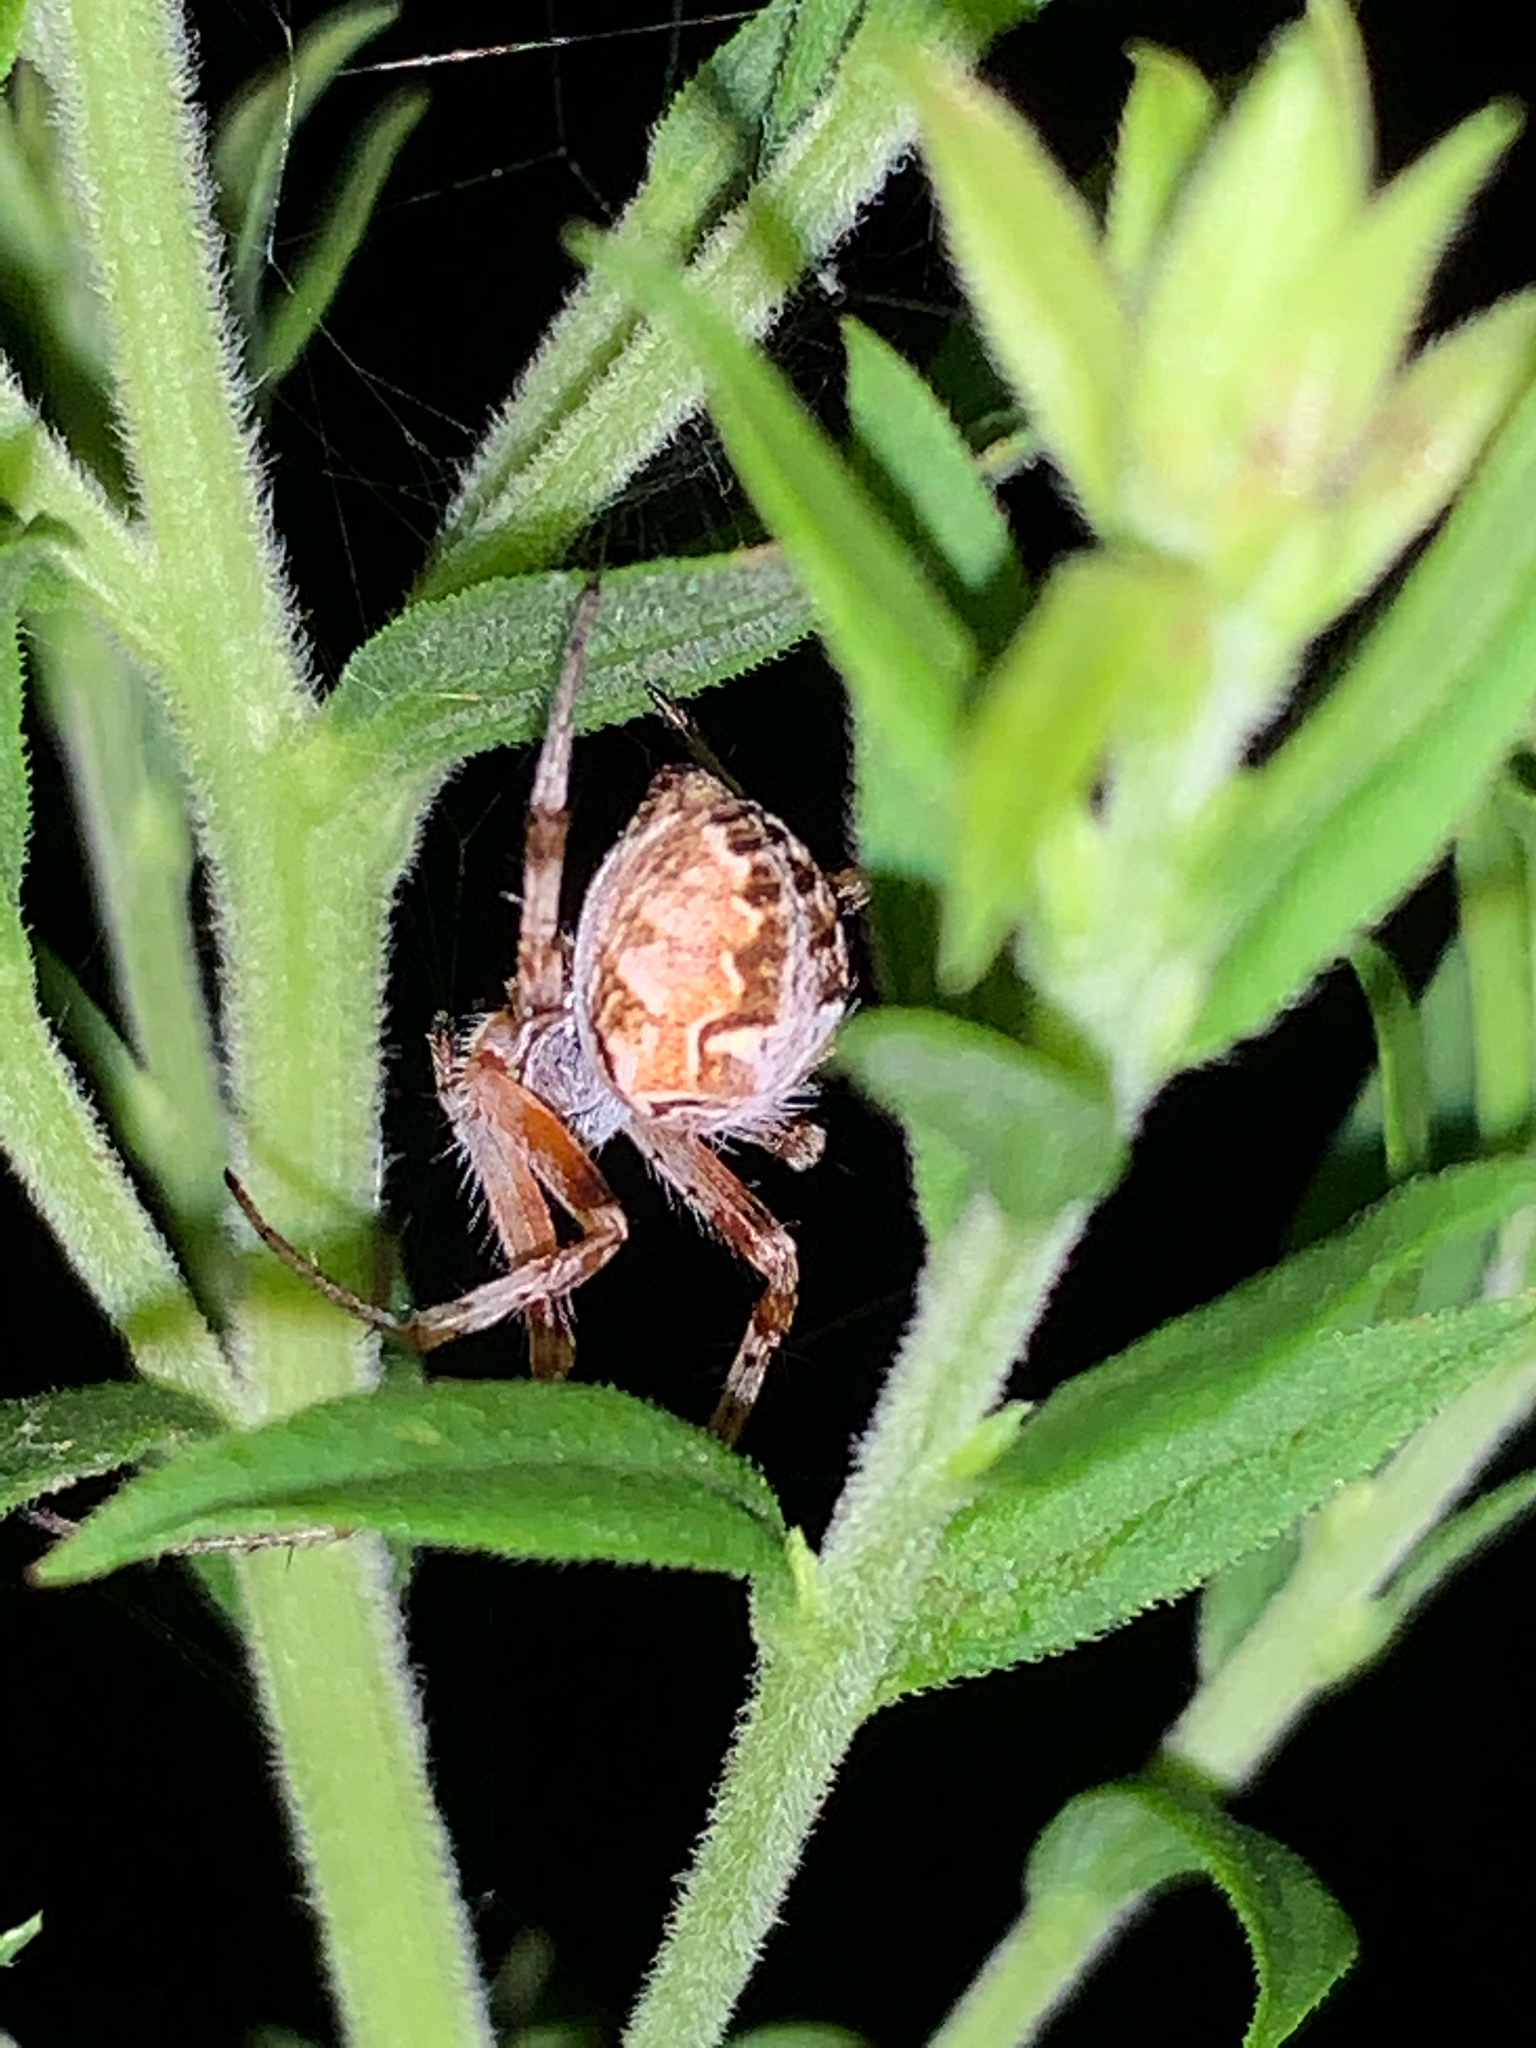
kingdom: Animalia
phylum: Arthropoda
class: Arachnida
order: Araneae
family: Araneidae
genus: Metepeira
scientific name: Metepeira labyrinthea
